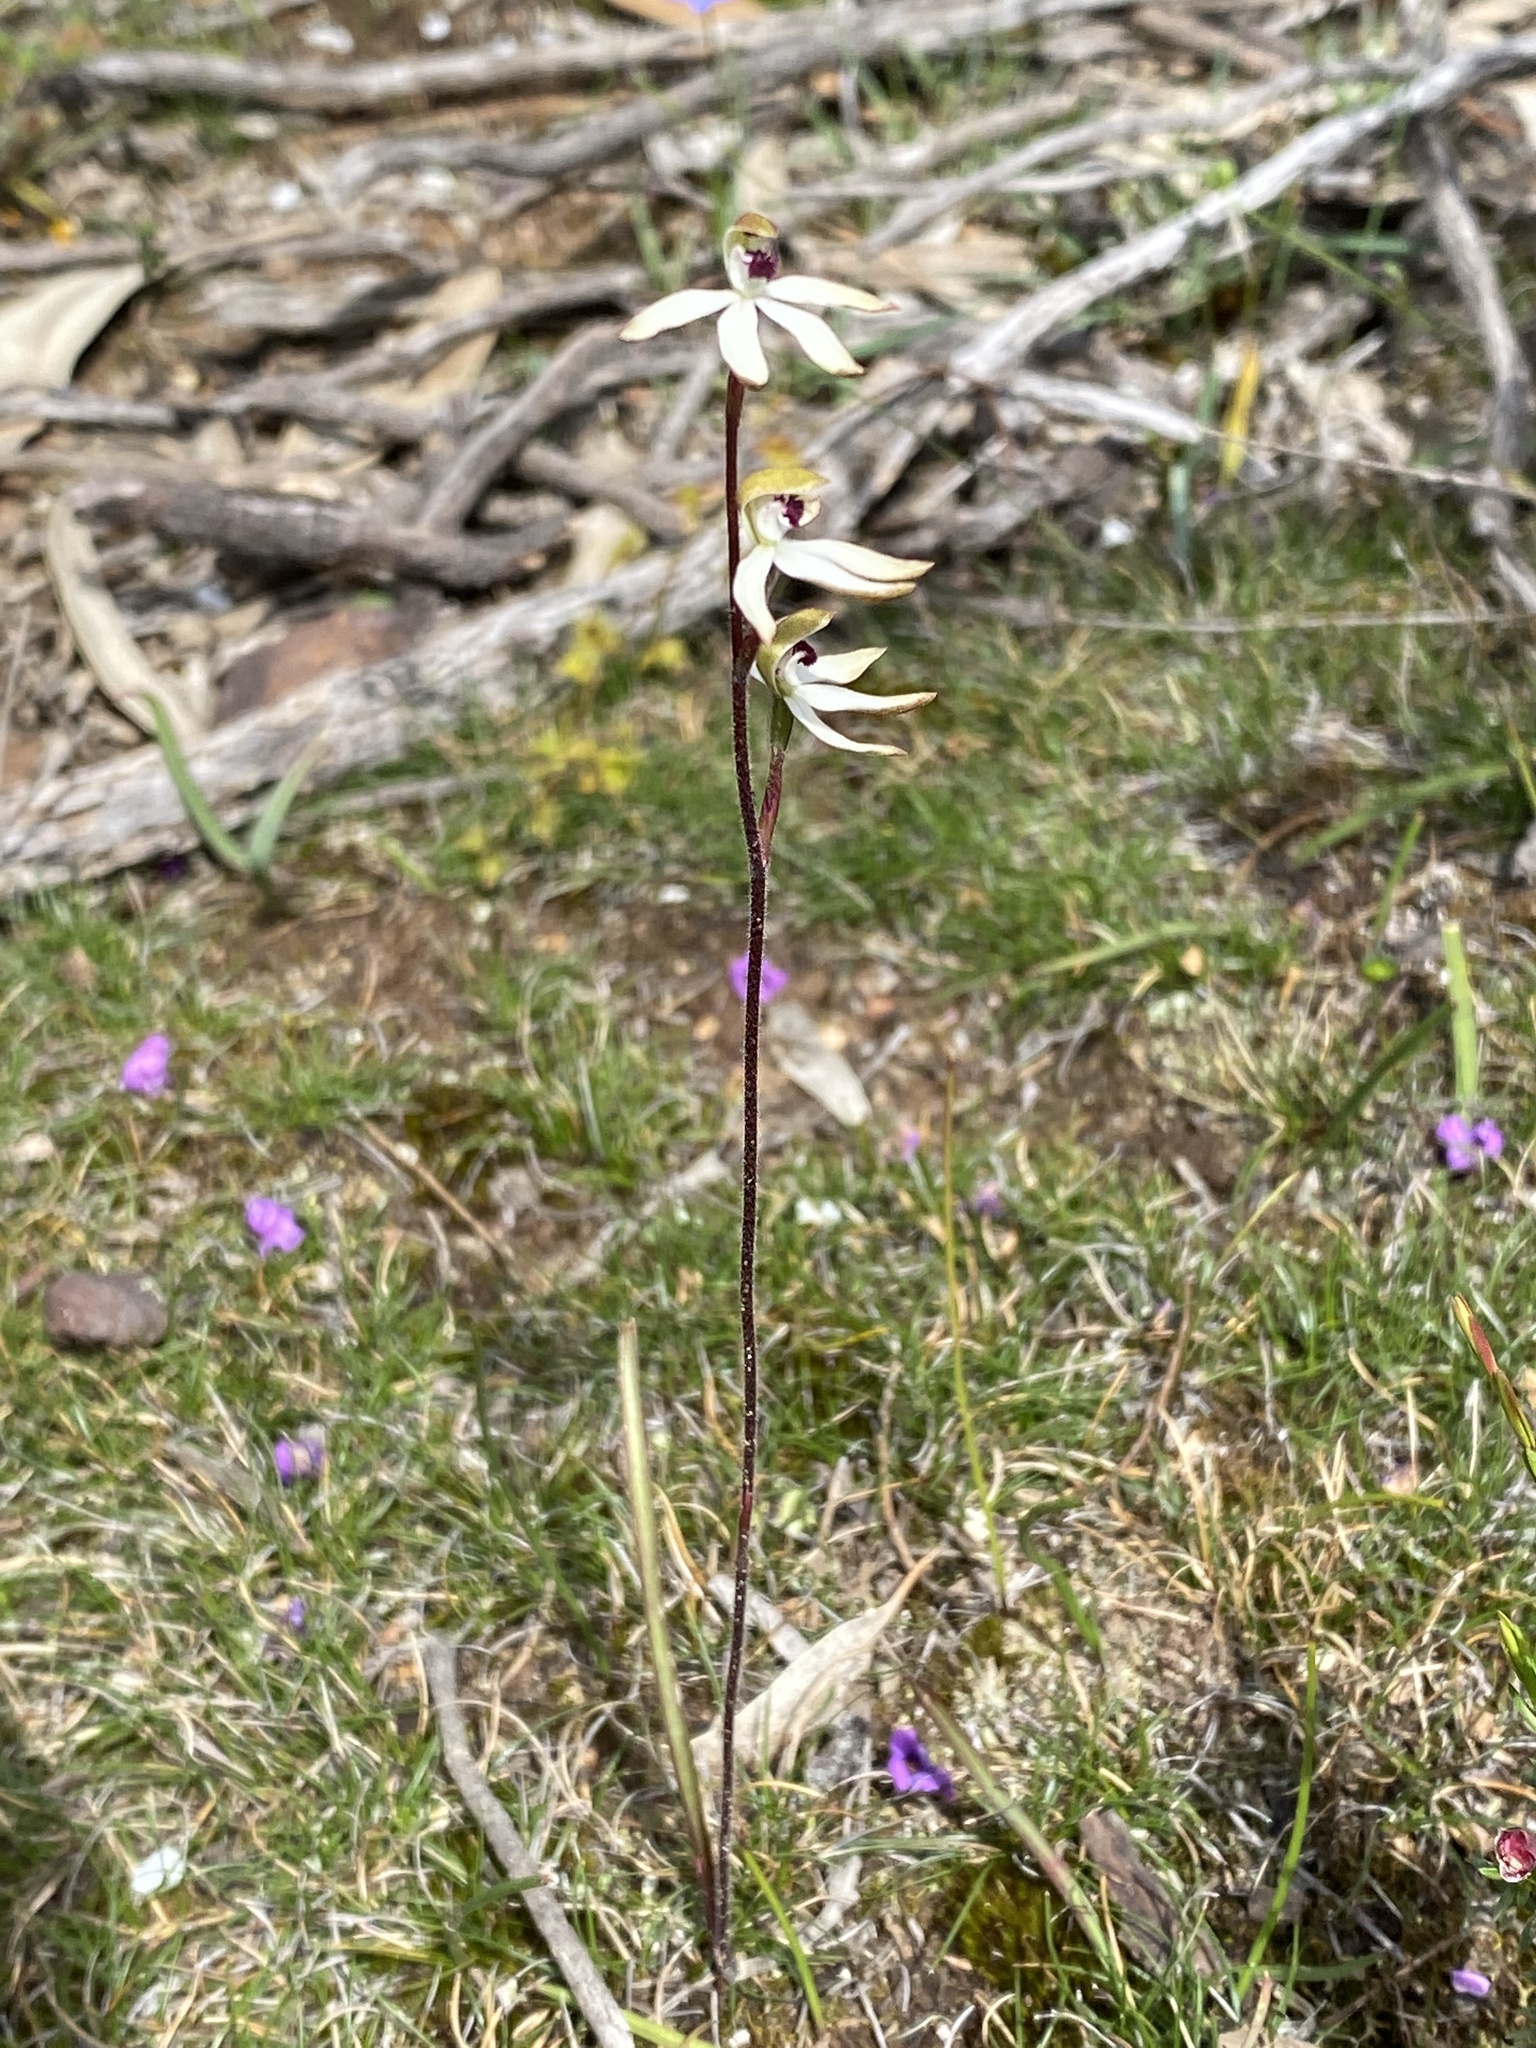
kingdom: Plantae
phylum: Tracheophyta
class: Liliopsida
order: Asparagales
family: Orchidaceae
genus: Caladenia
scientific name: Caladenia cucullata
